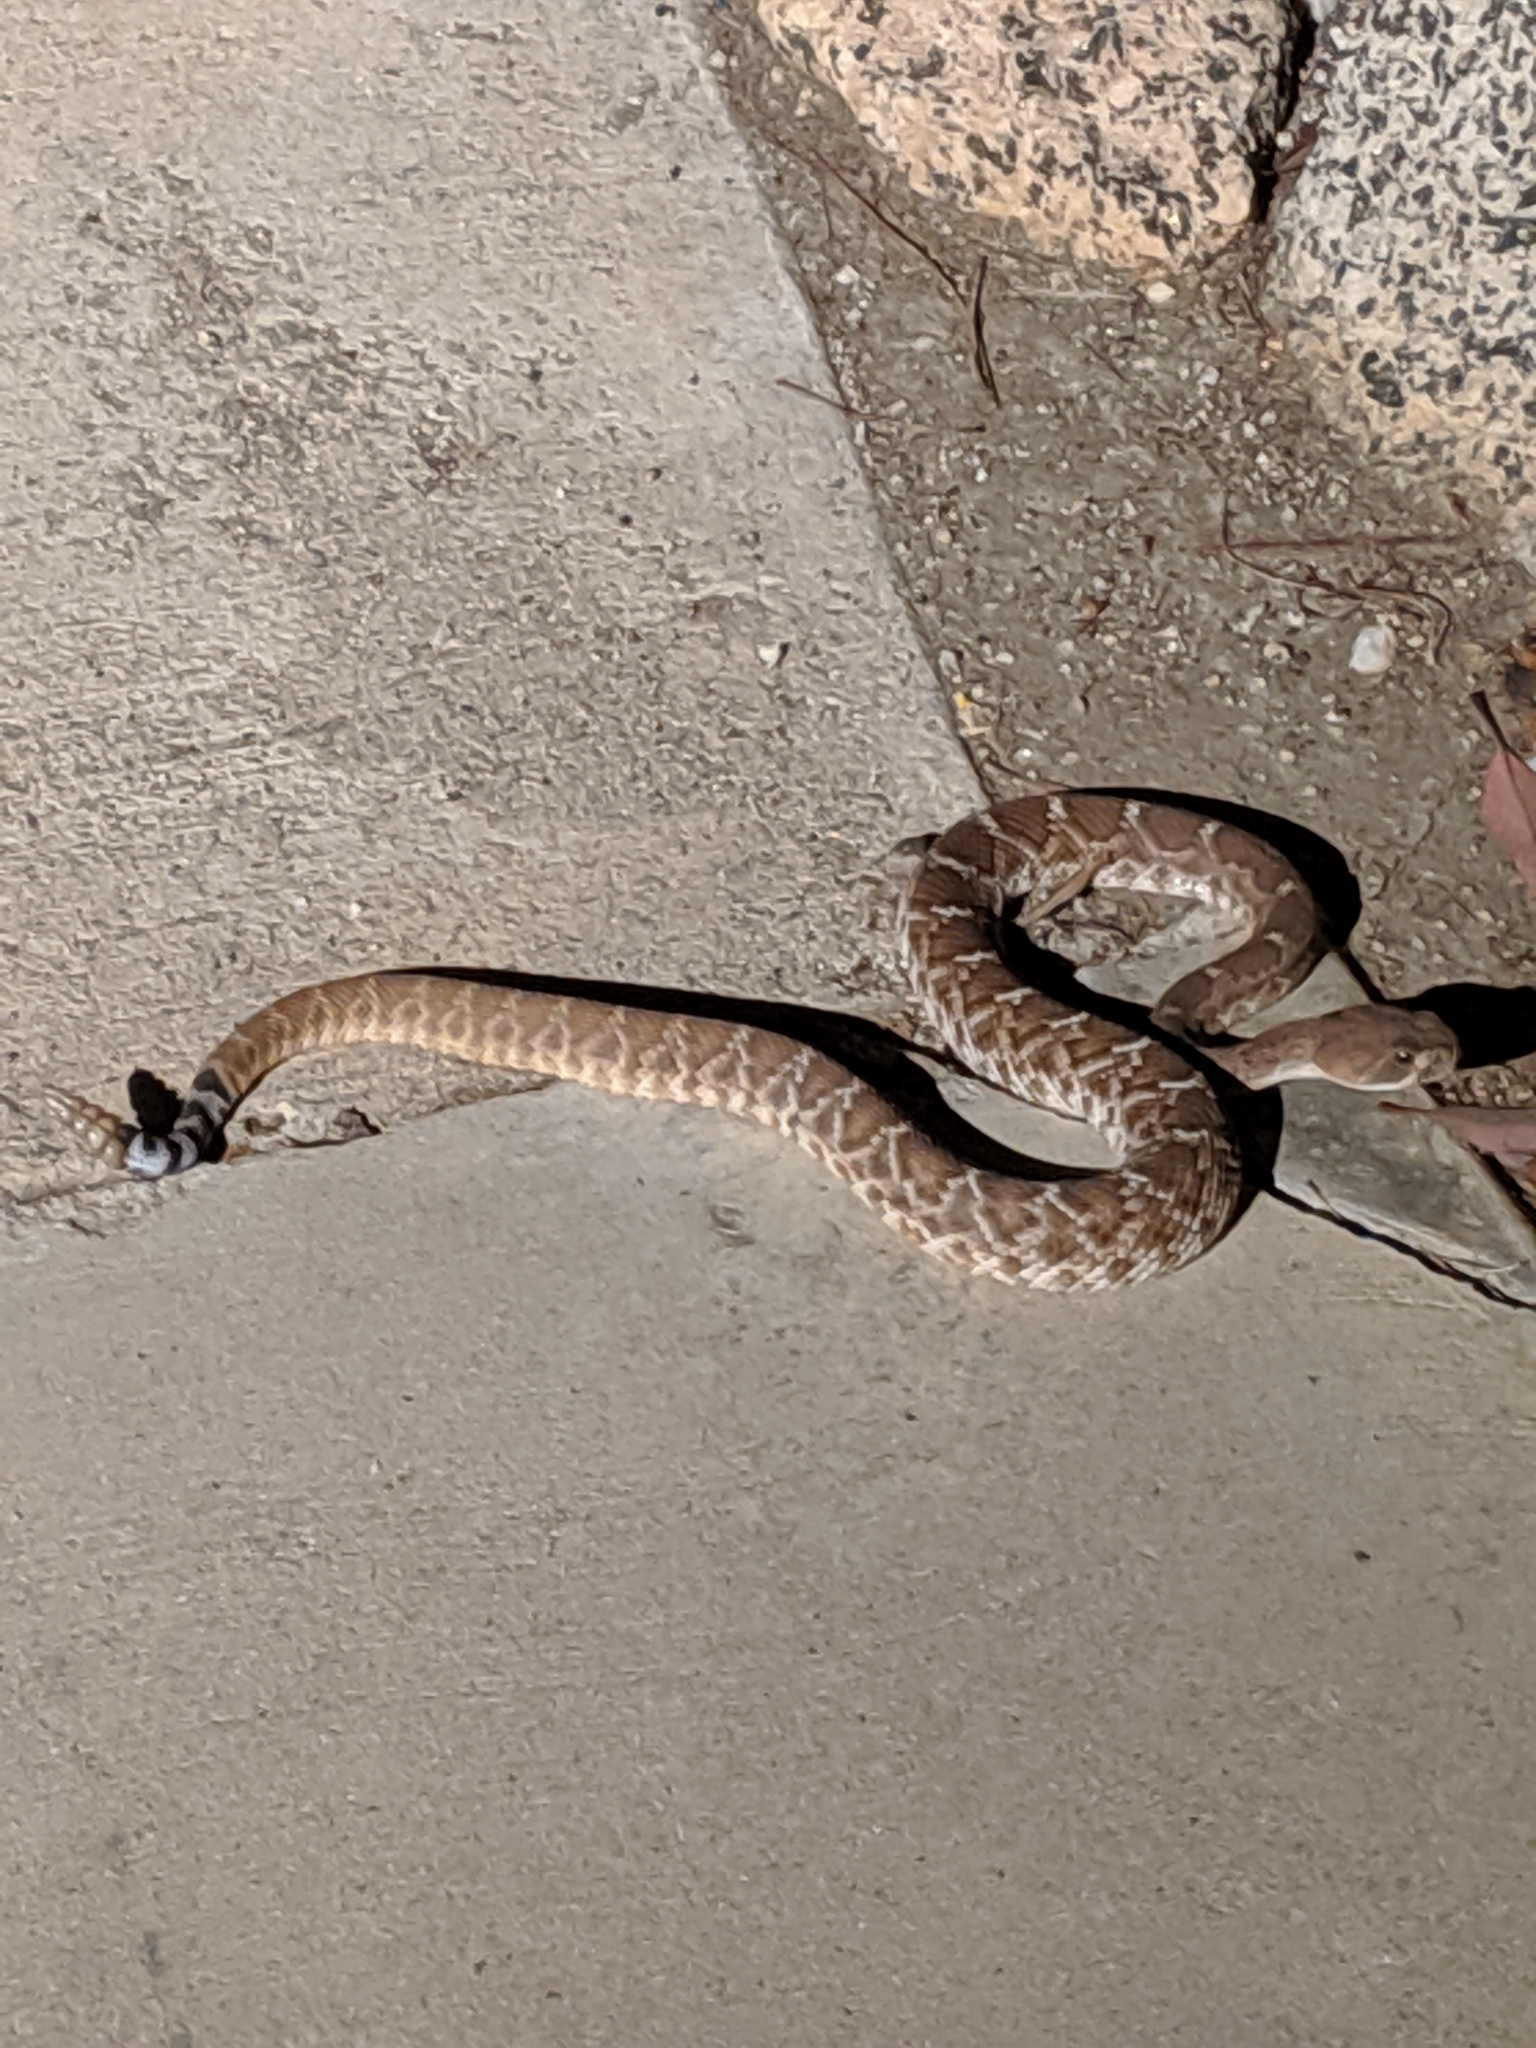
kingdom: Animalia
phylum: Chordata
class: Squamata
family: Viperidae
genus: Crotalus
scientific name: Crotalus ruber
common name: Red diamond rattlesnake
